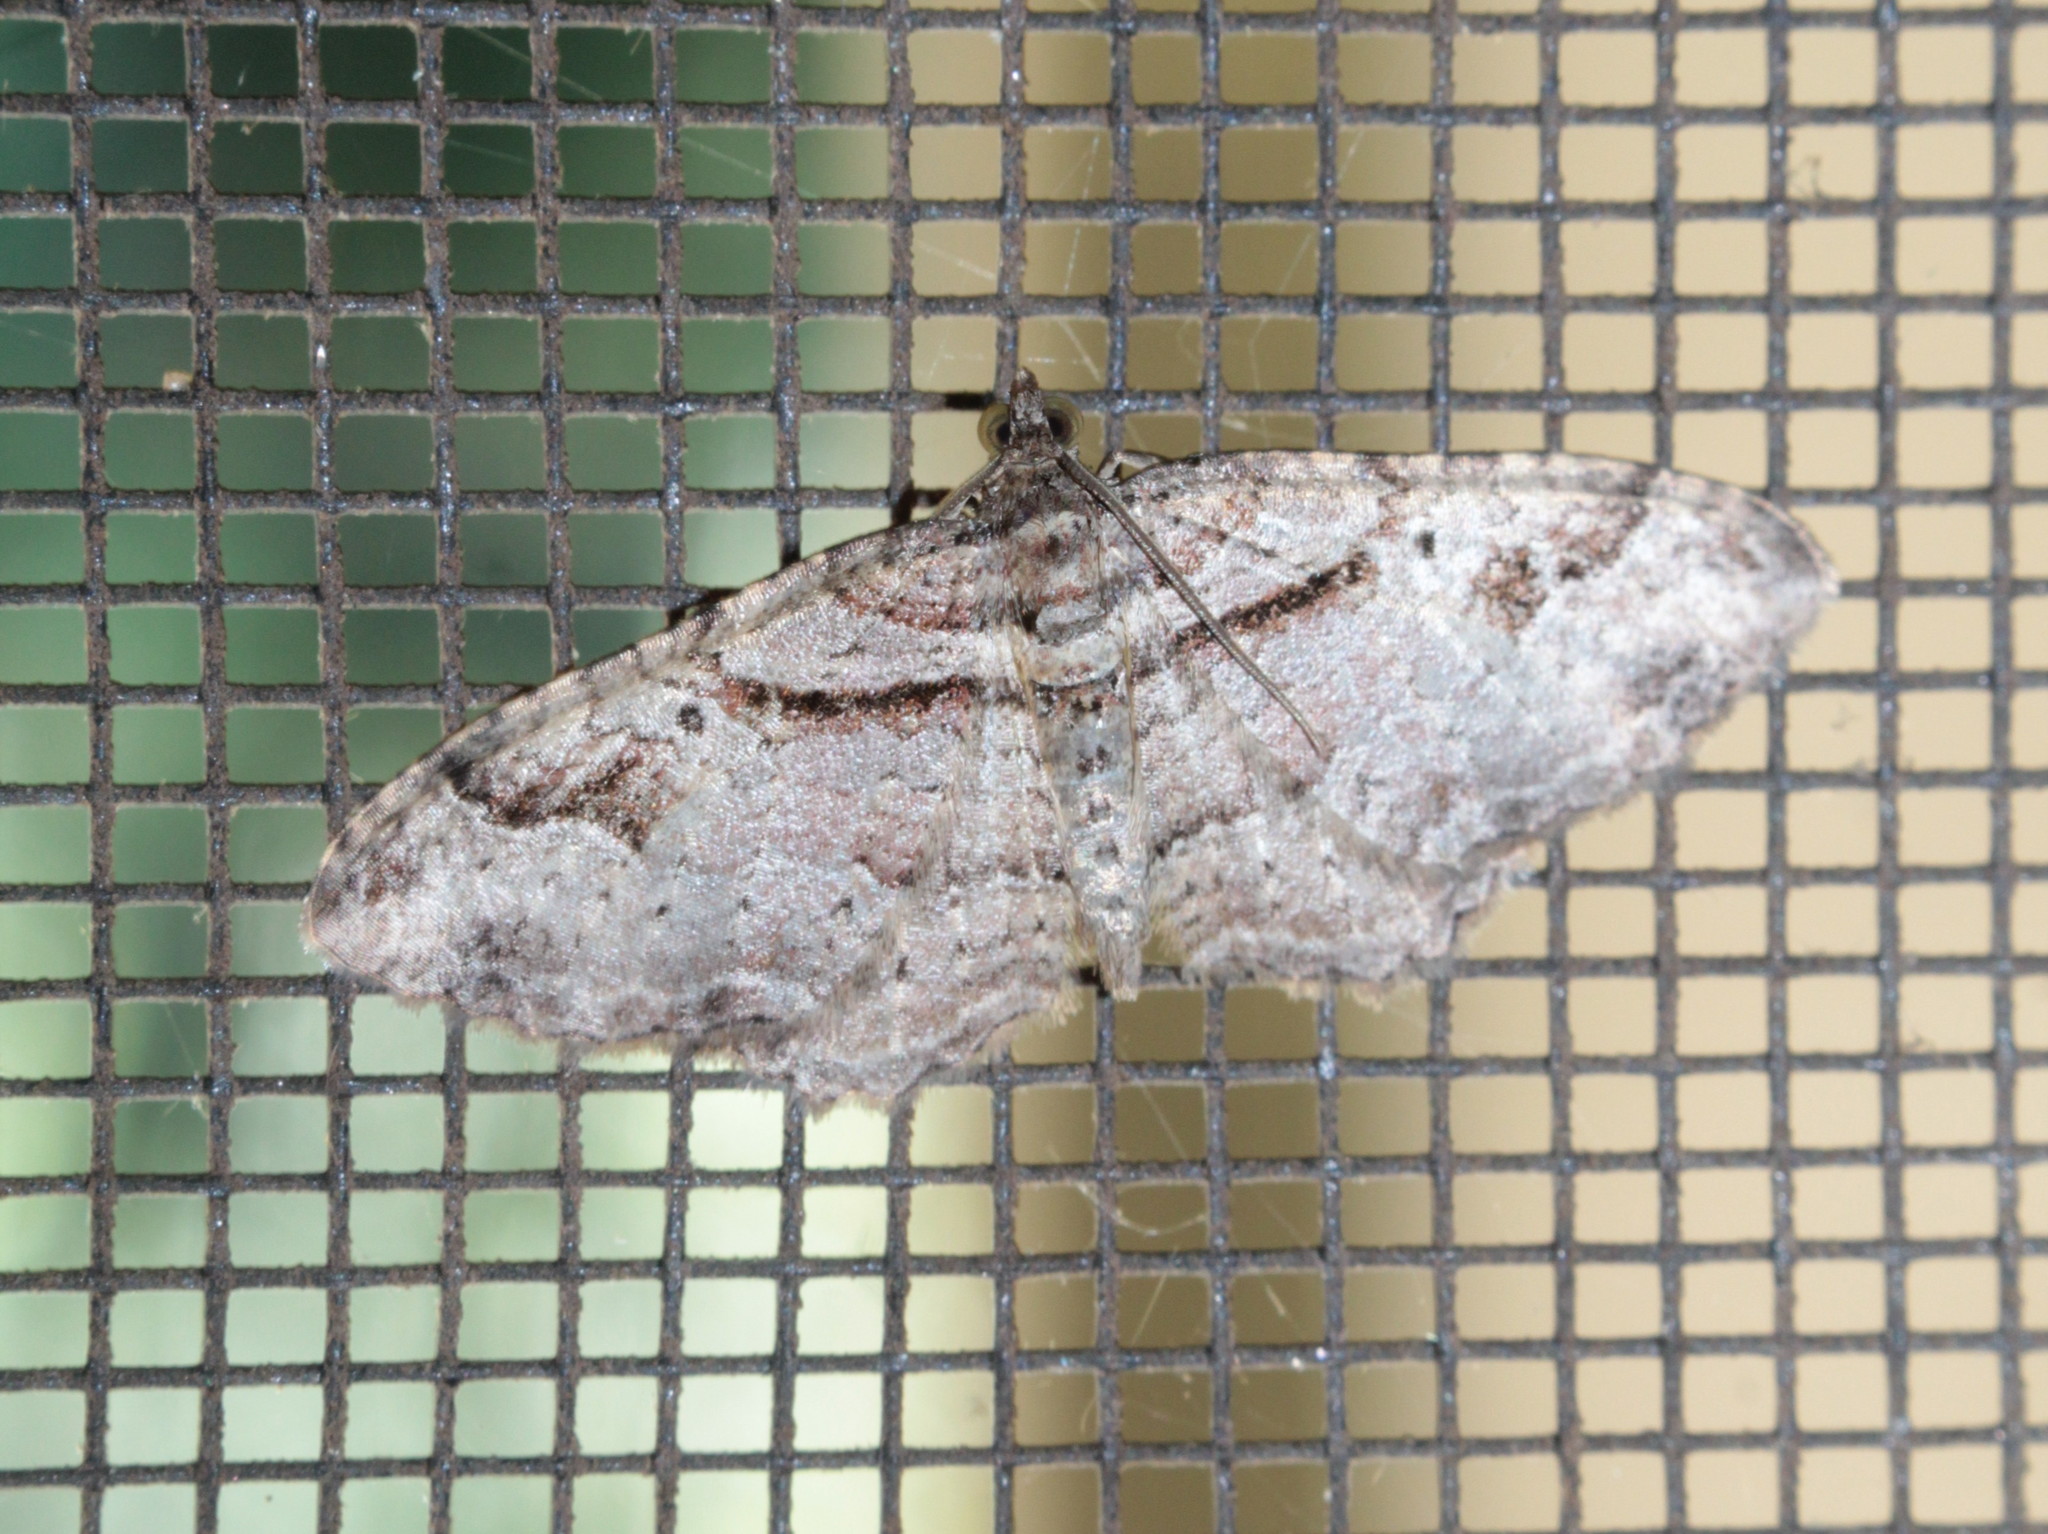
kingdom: Animalia
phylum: Arthropoda
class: Insecta
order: Lepidoptera
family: Geometridae
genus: Costaconvexa
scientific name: Costaconvexa centrostrigaria
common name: Bent-line carpet
